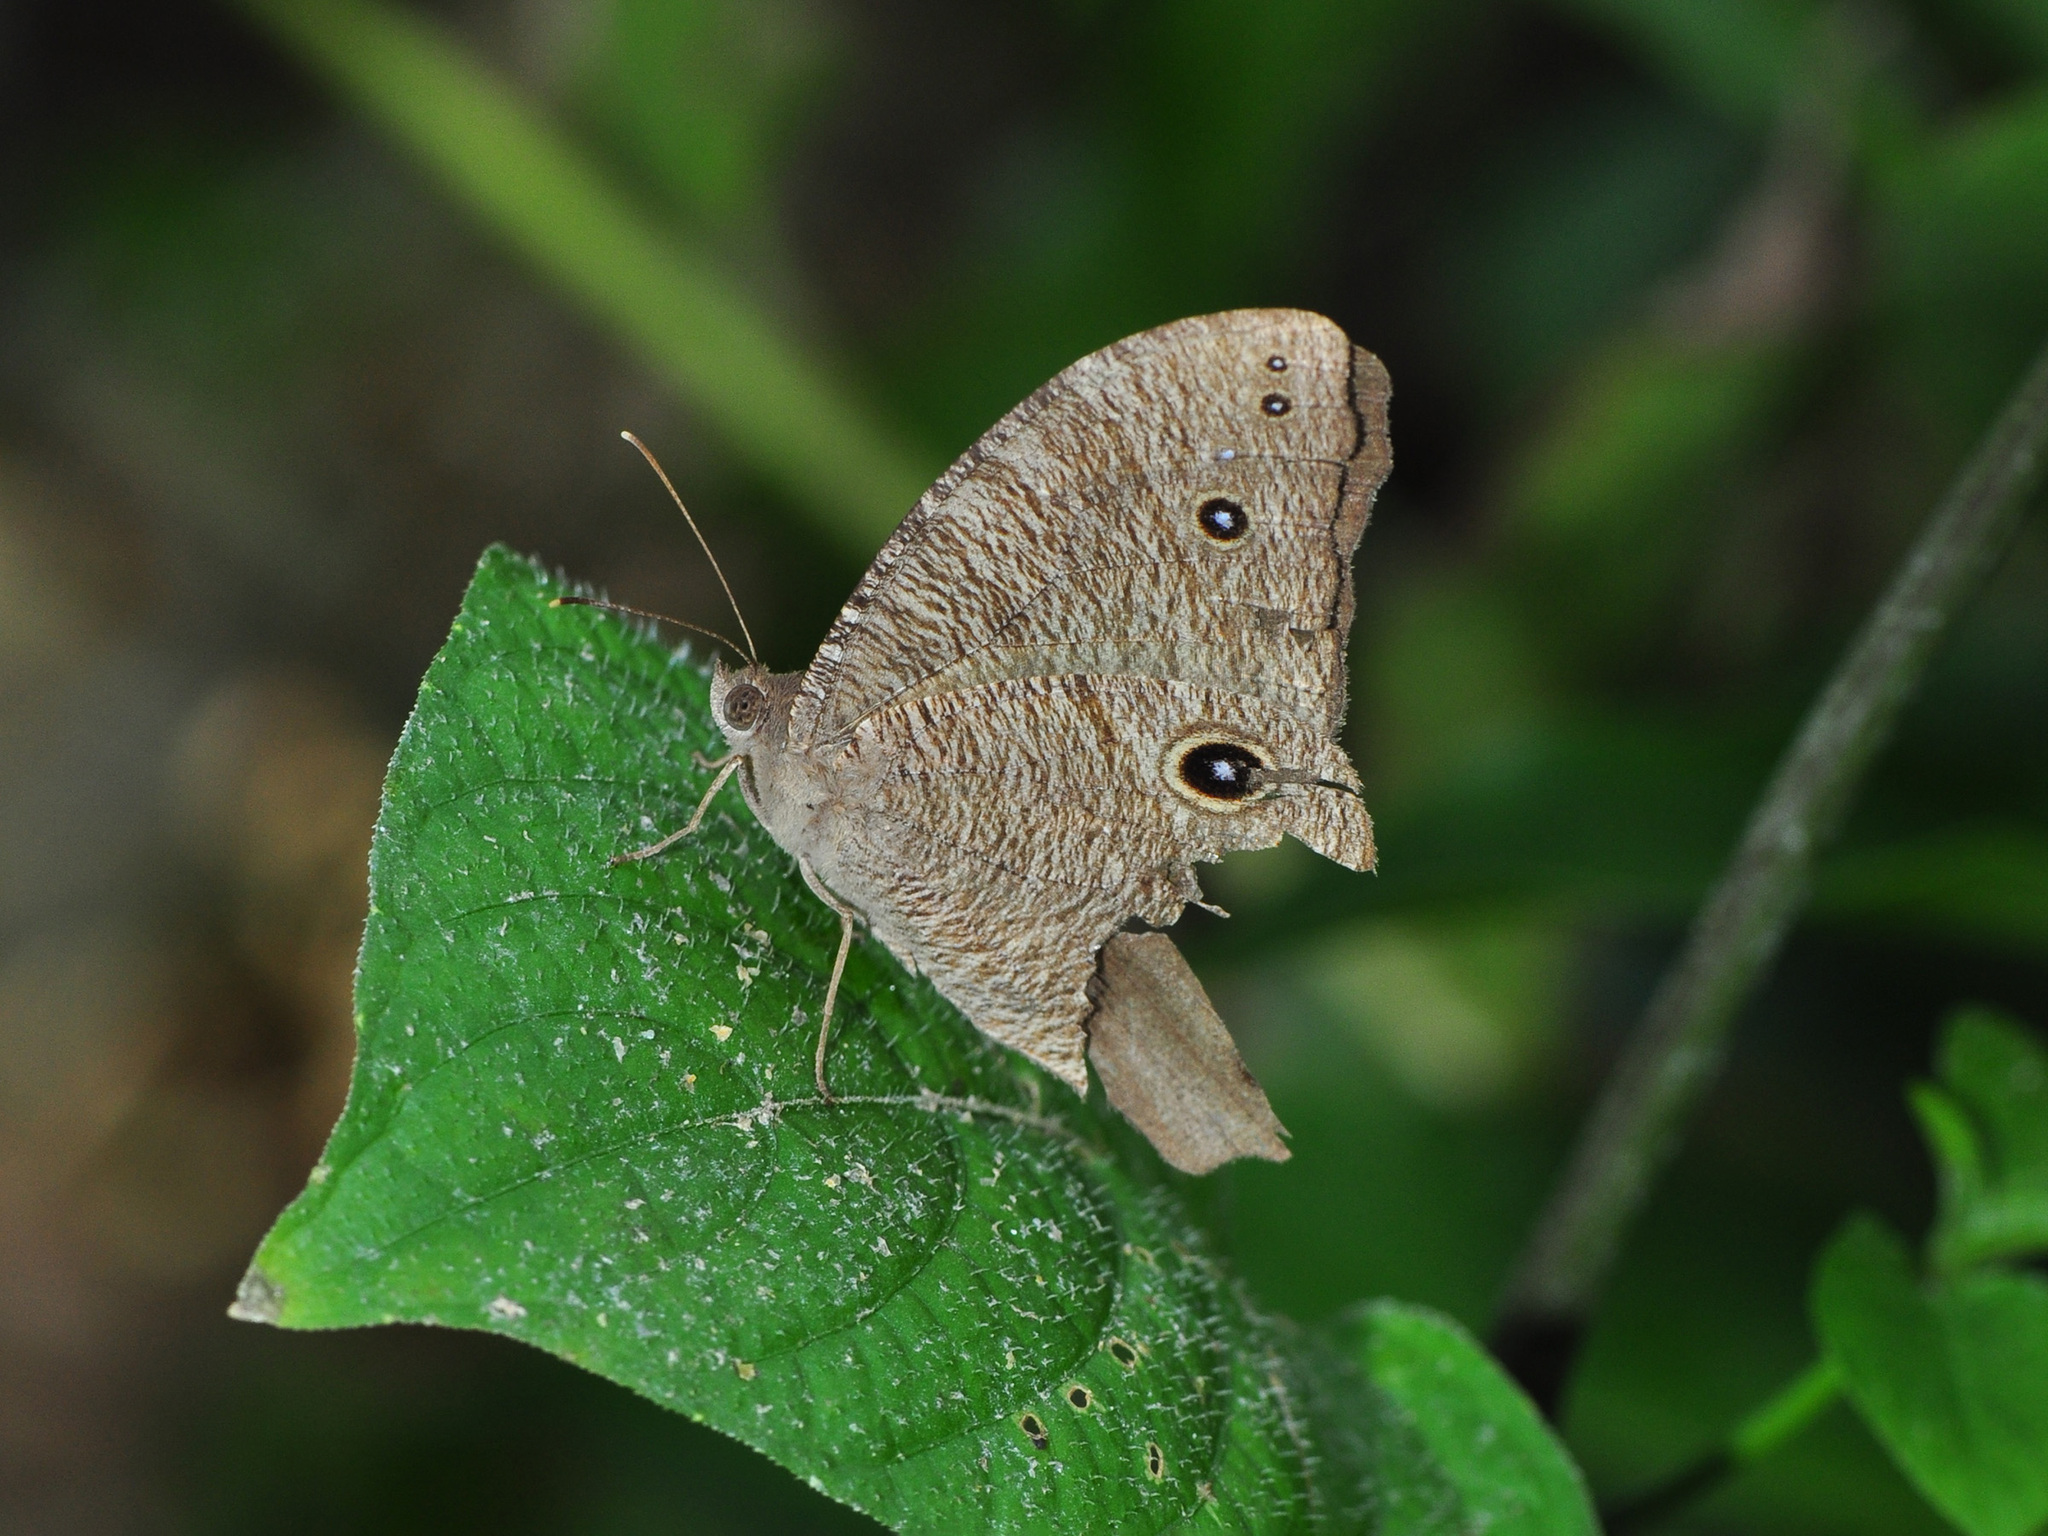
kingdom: Animalia
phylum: Arthropoda
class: Insecta
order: Lepidoptera
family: Nymphalidae
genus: Melanitis
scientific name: Melanitis leda
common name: Twilight brown
